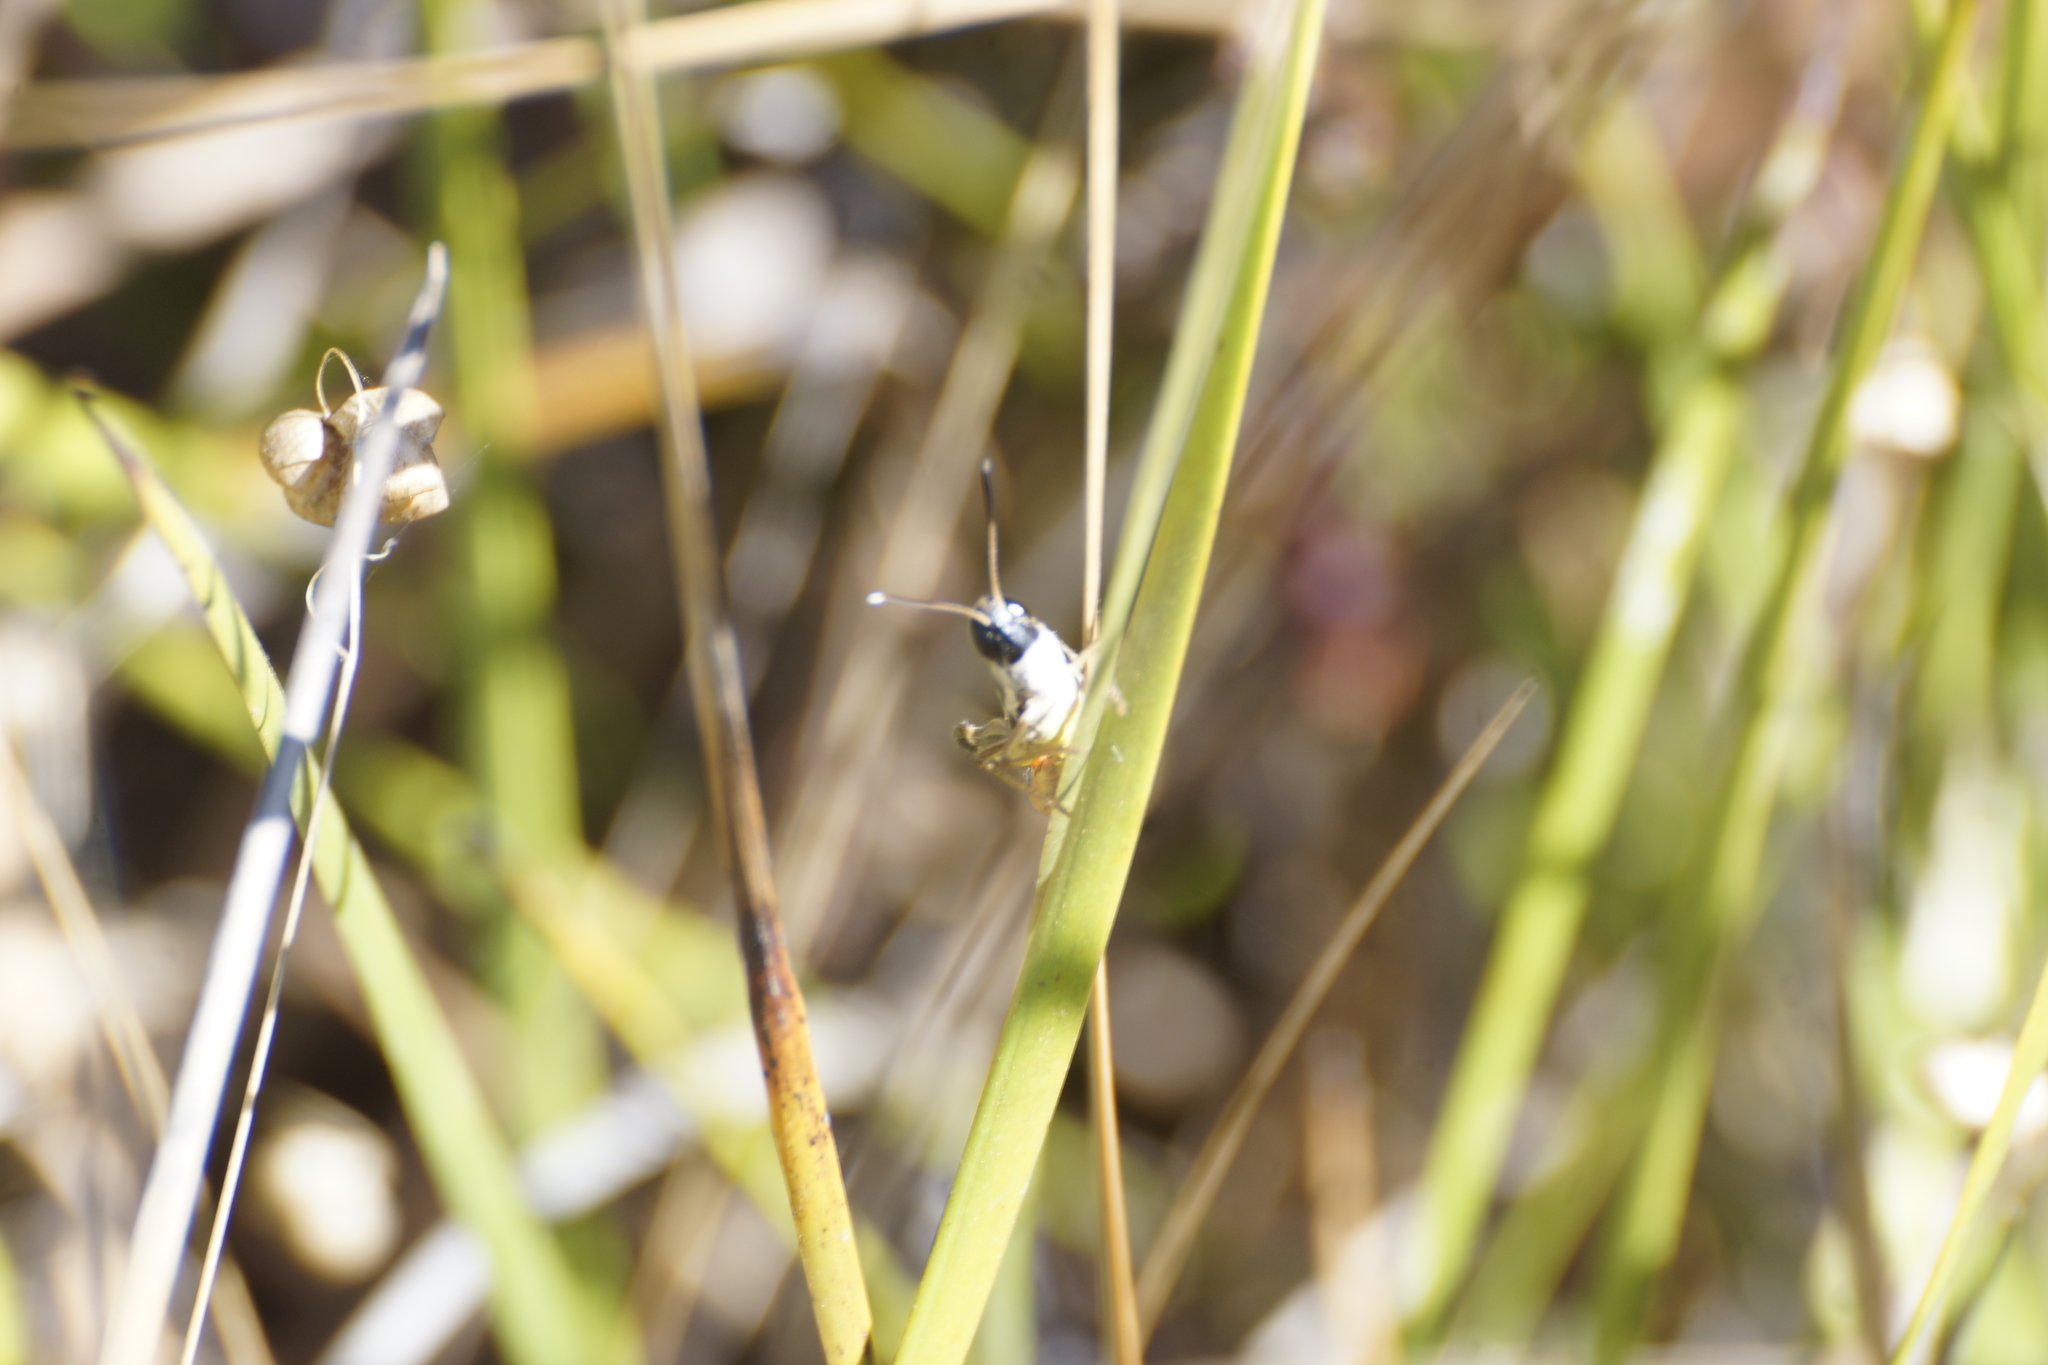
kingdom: Animalia
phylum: Arthropoda
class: Insecta
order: Orthoptera
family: Acrididae
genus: Macrotona
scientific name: Macrotona australis
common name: Common macrotona
